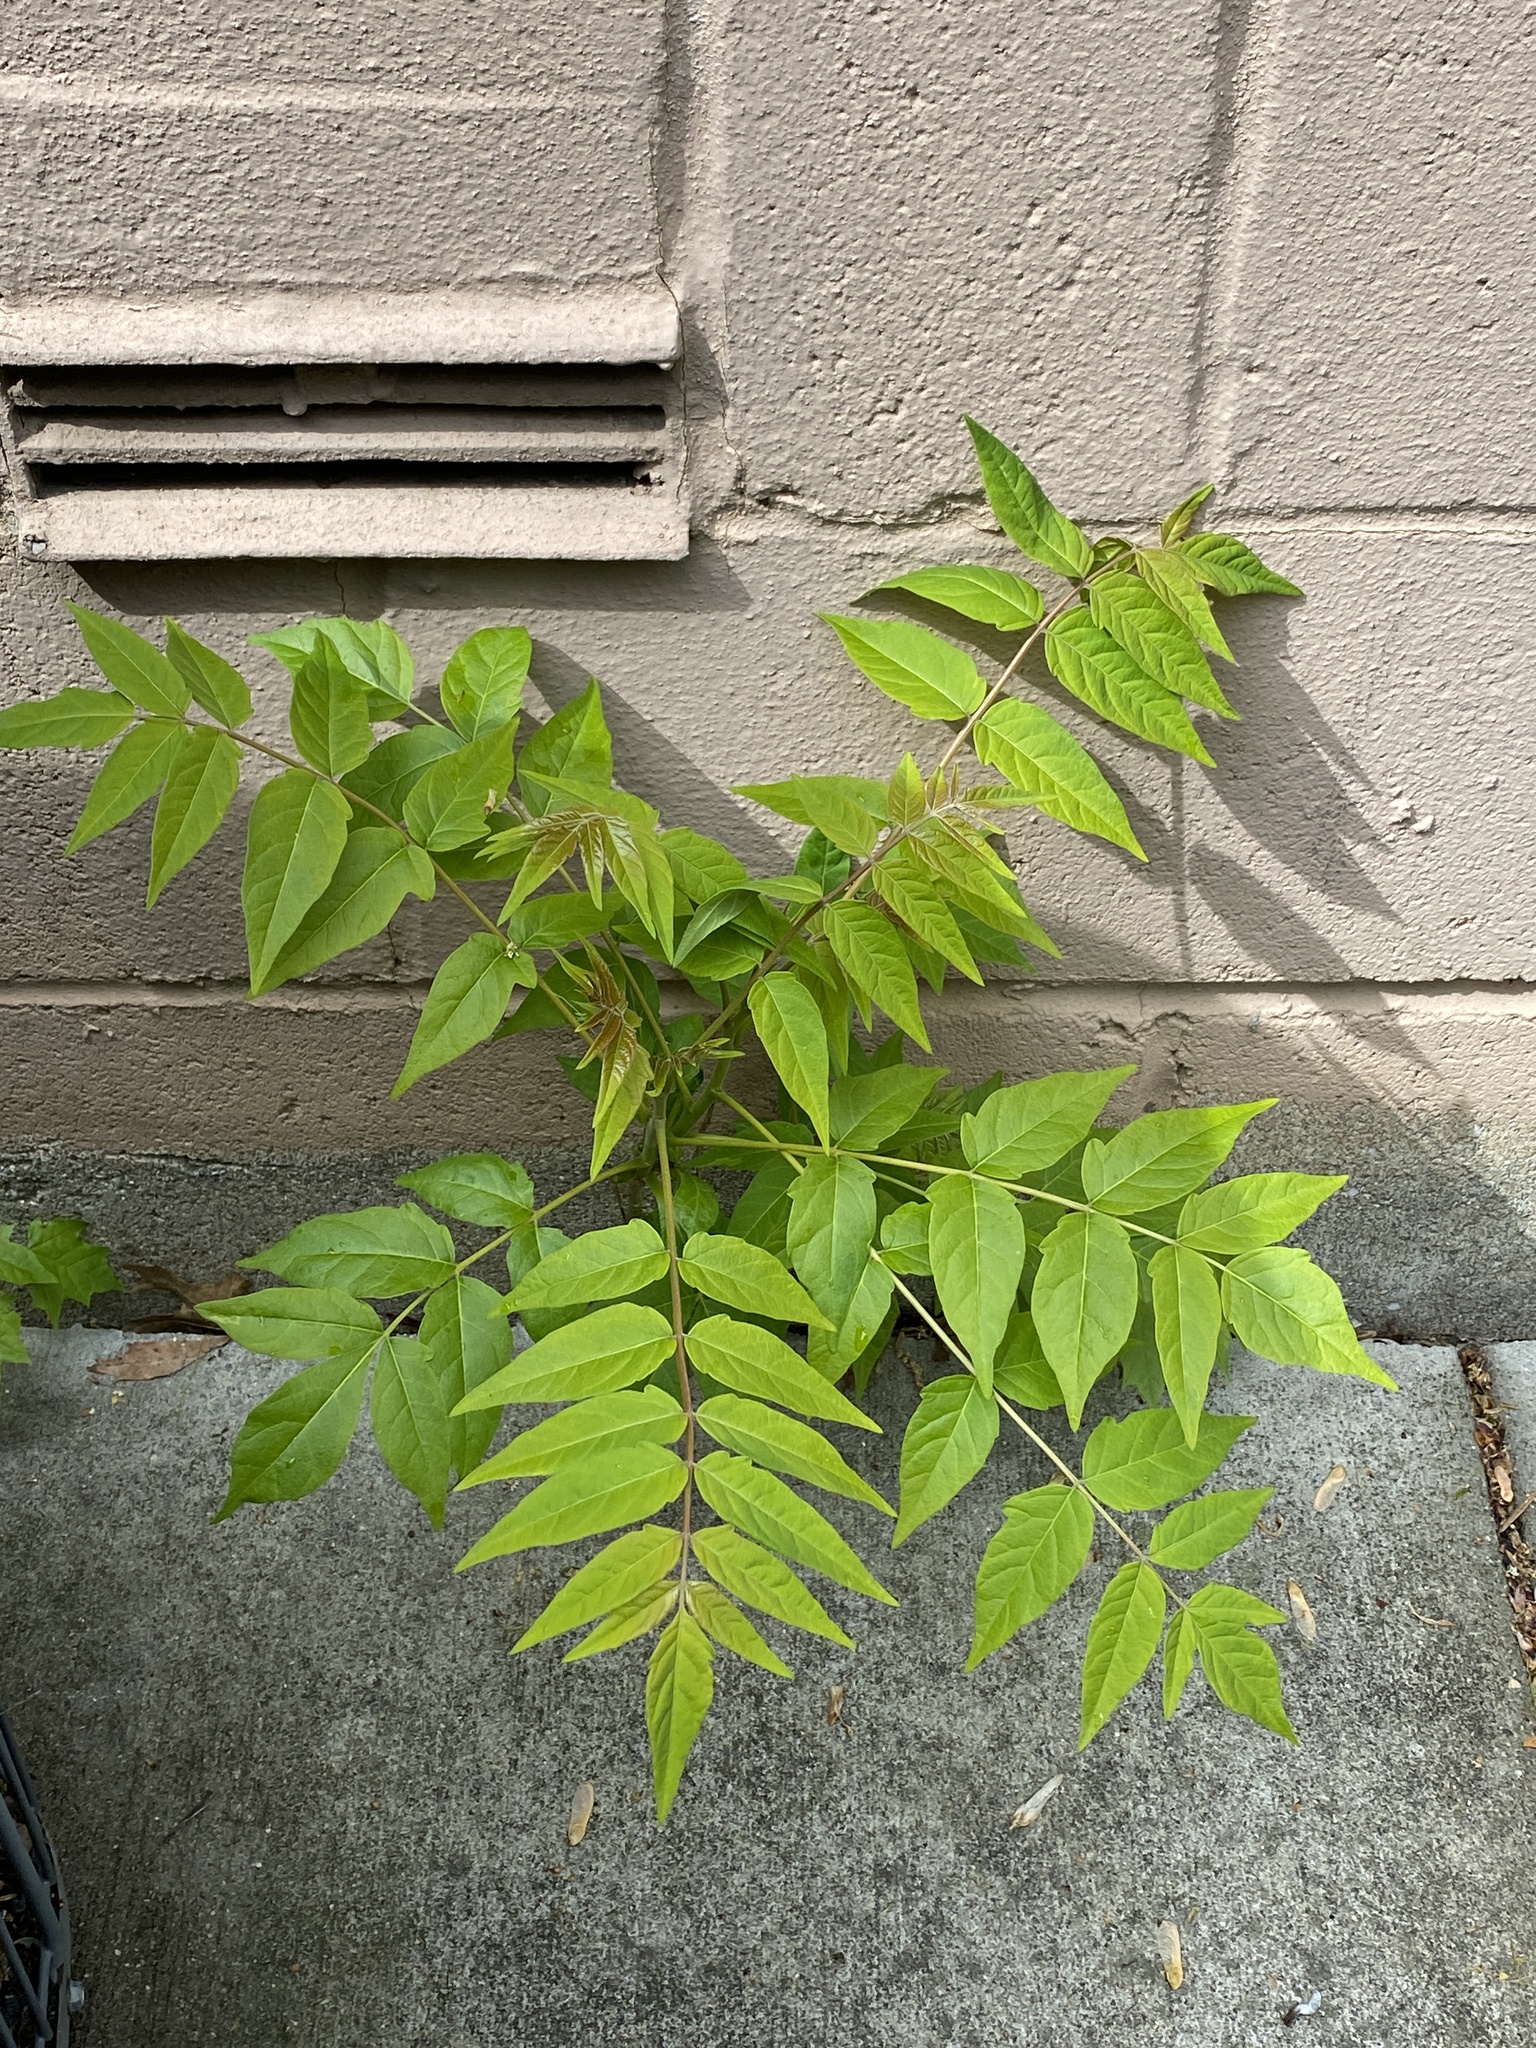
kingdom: Plantae
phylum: Tracheophyta
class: Magnoliopsida
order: Sapindales
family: Simaroubaceae
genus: Ailanthus
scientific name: Ailanthus altissima
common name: Tree-of-heaven
